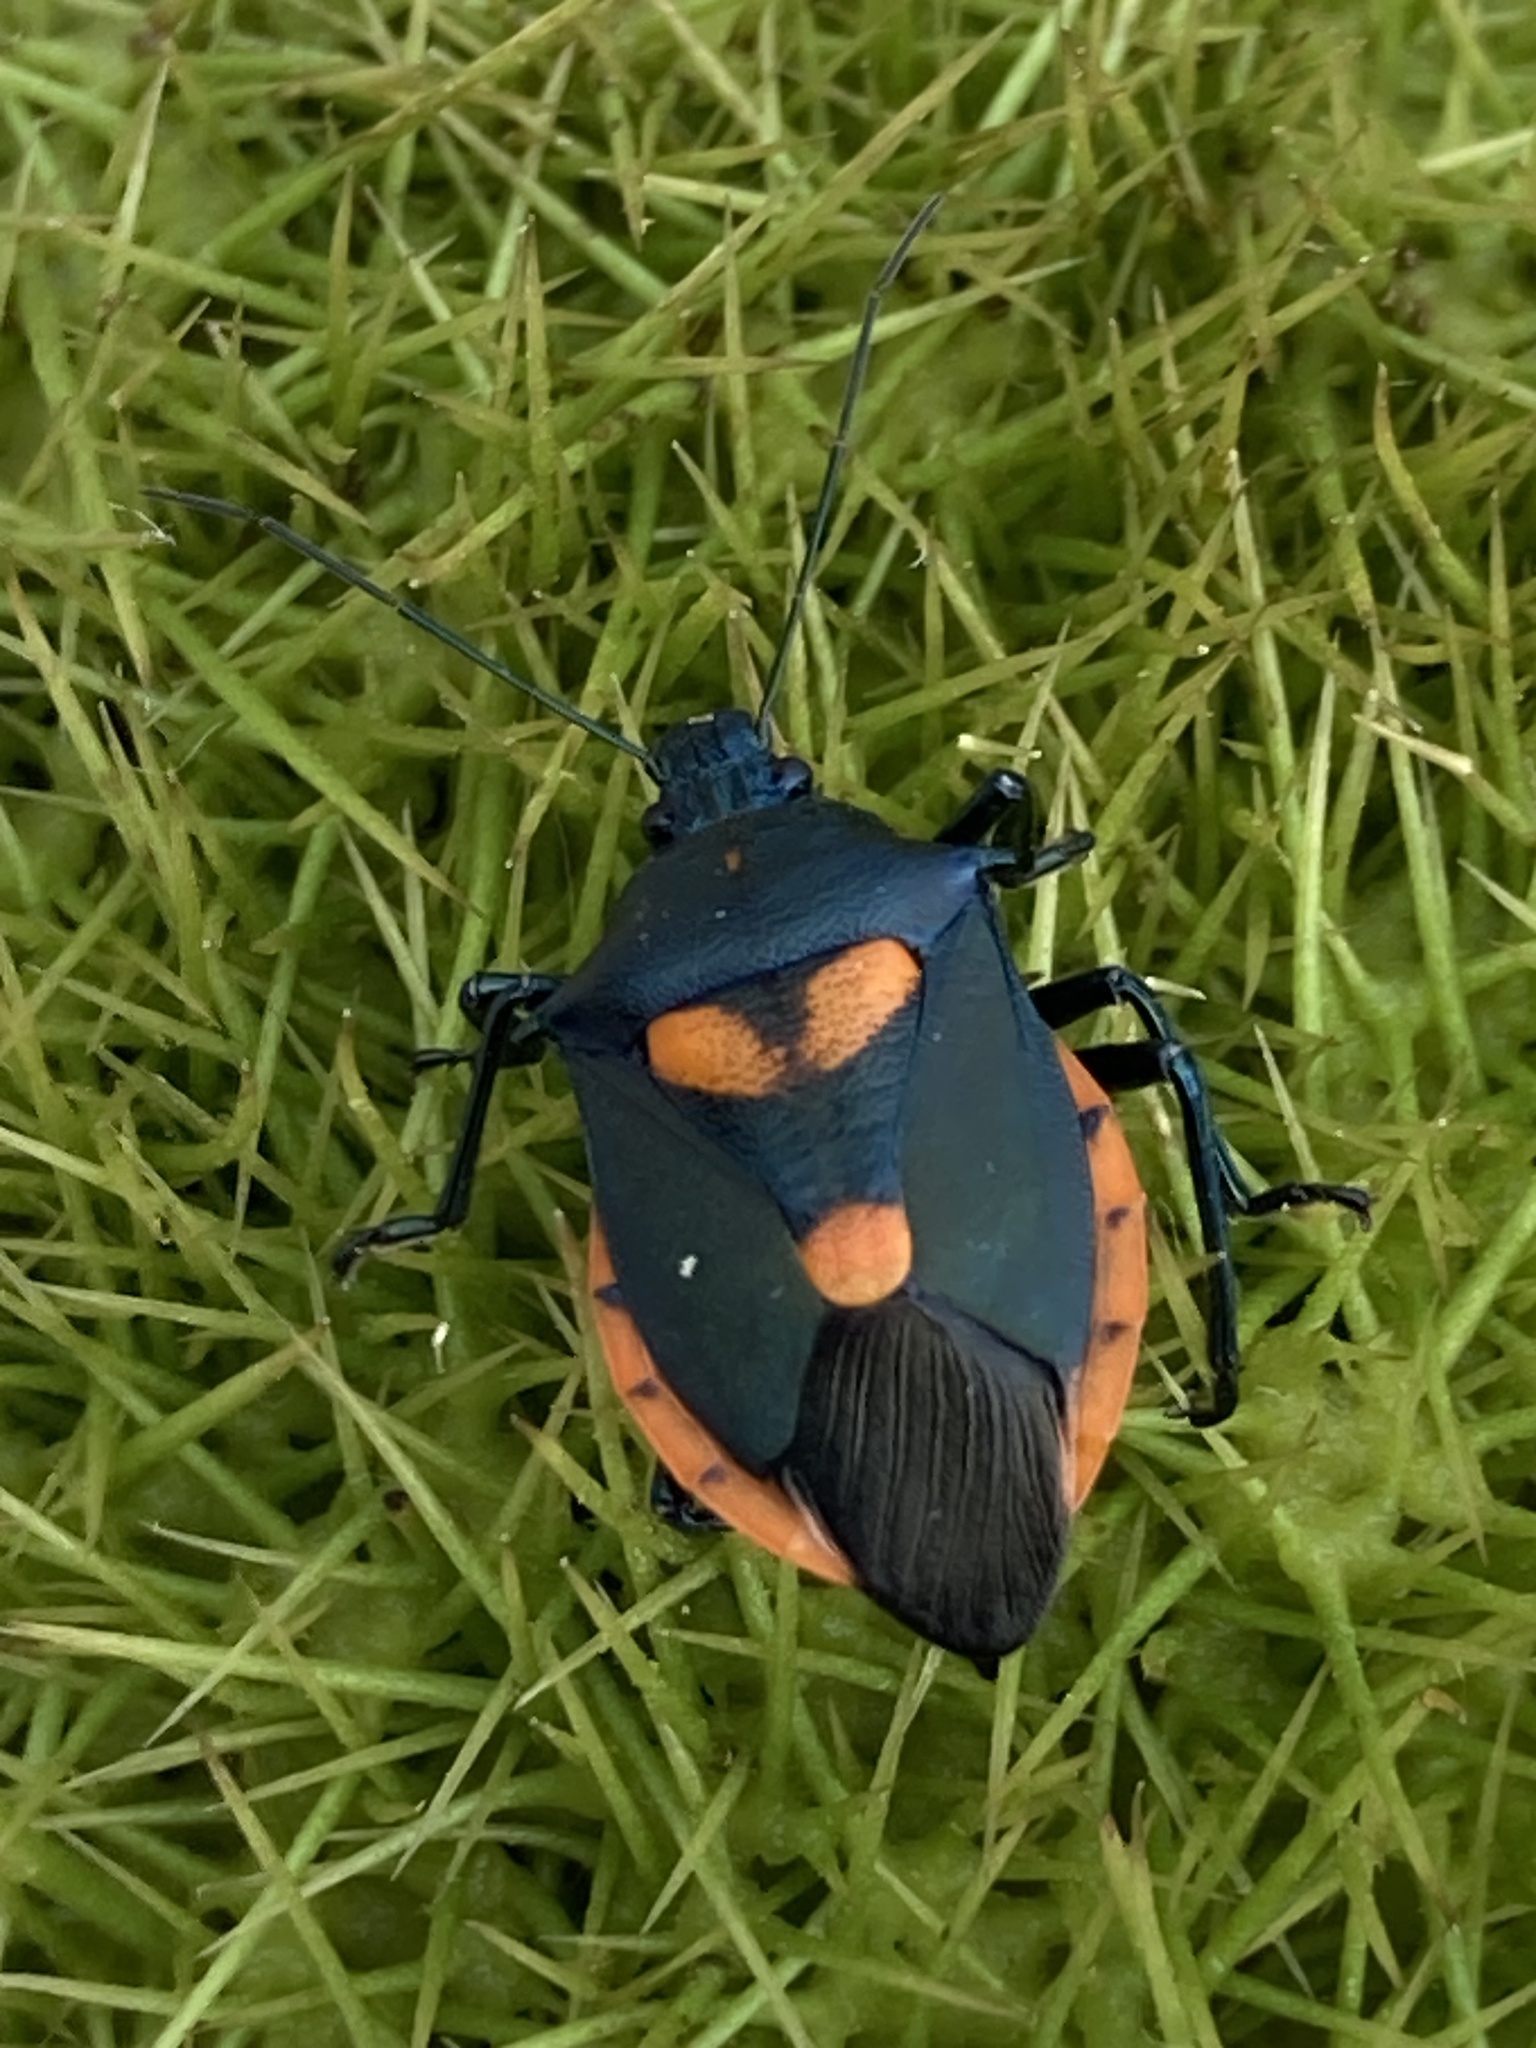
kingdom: Animalia
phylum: Arthropoda
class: Insecta
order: Hemiptera
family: Pentatomidae
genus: Euthyrhynchus
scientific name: Euthyrhynchus floridanus
